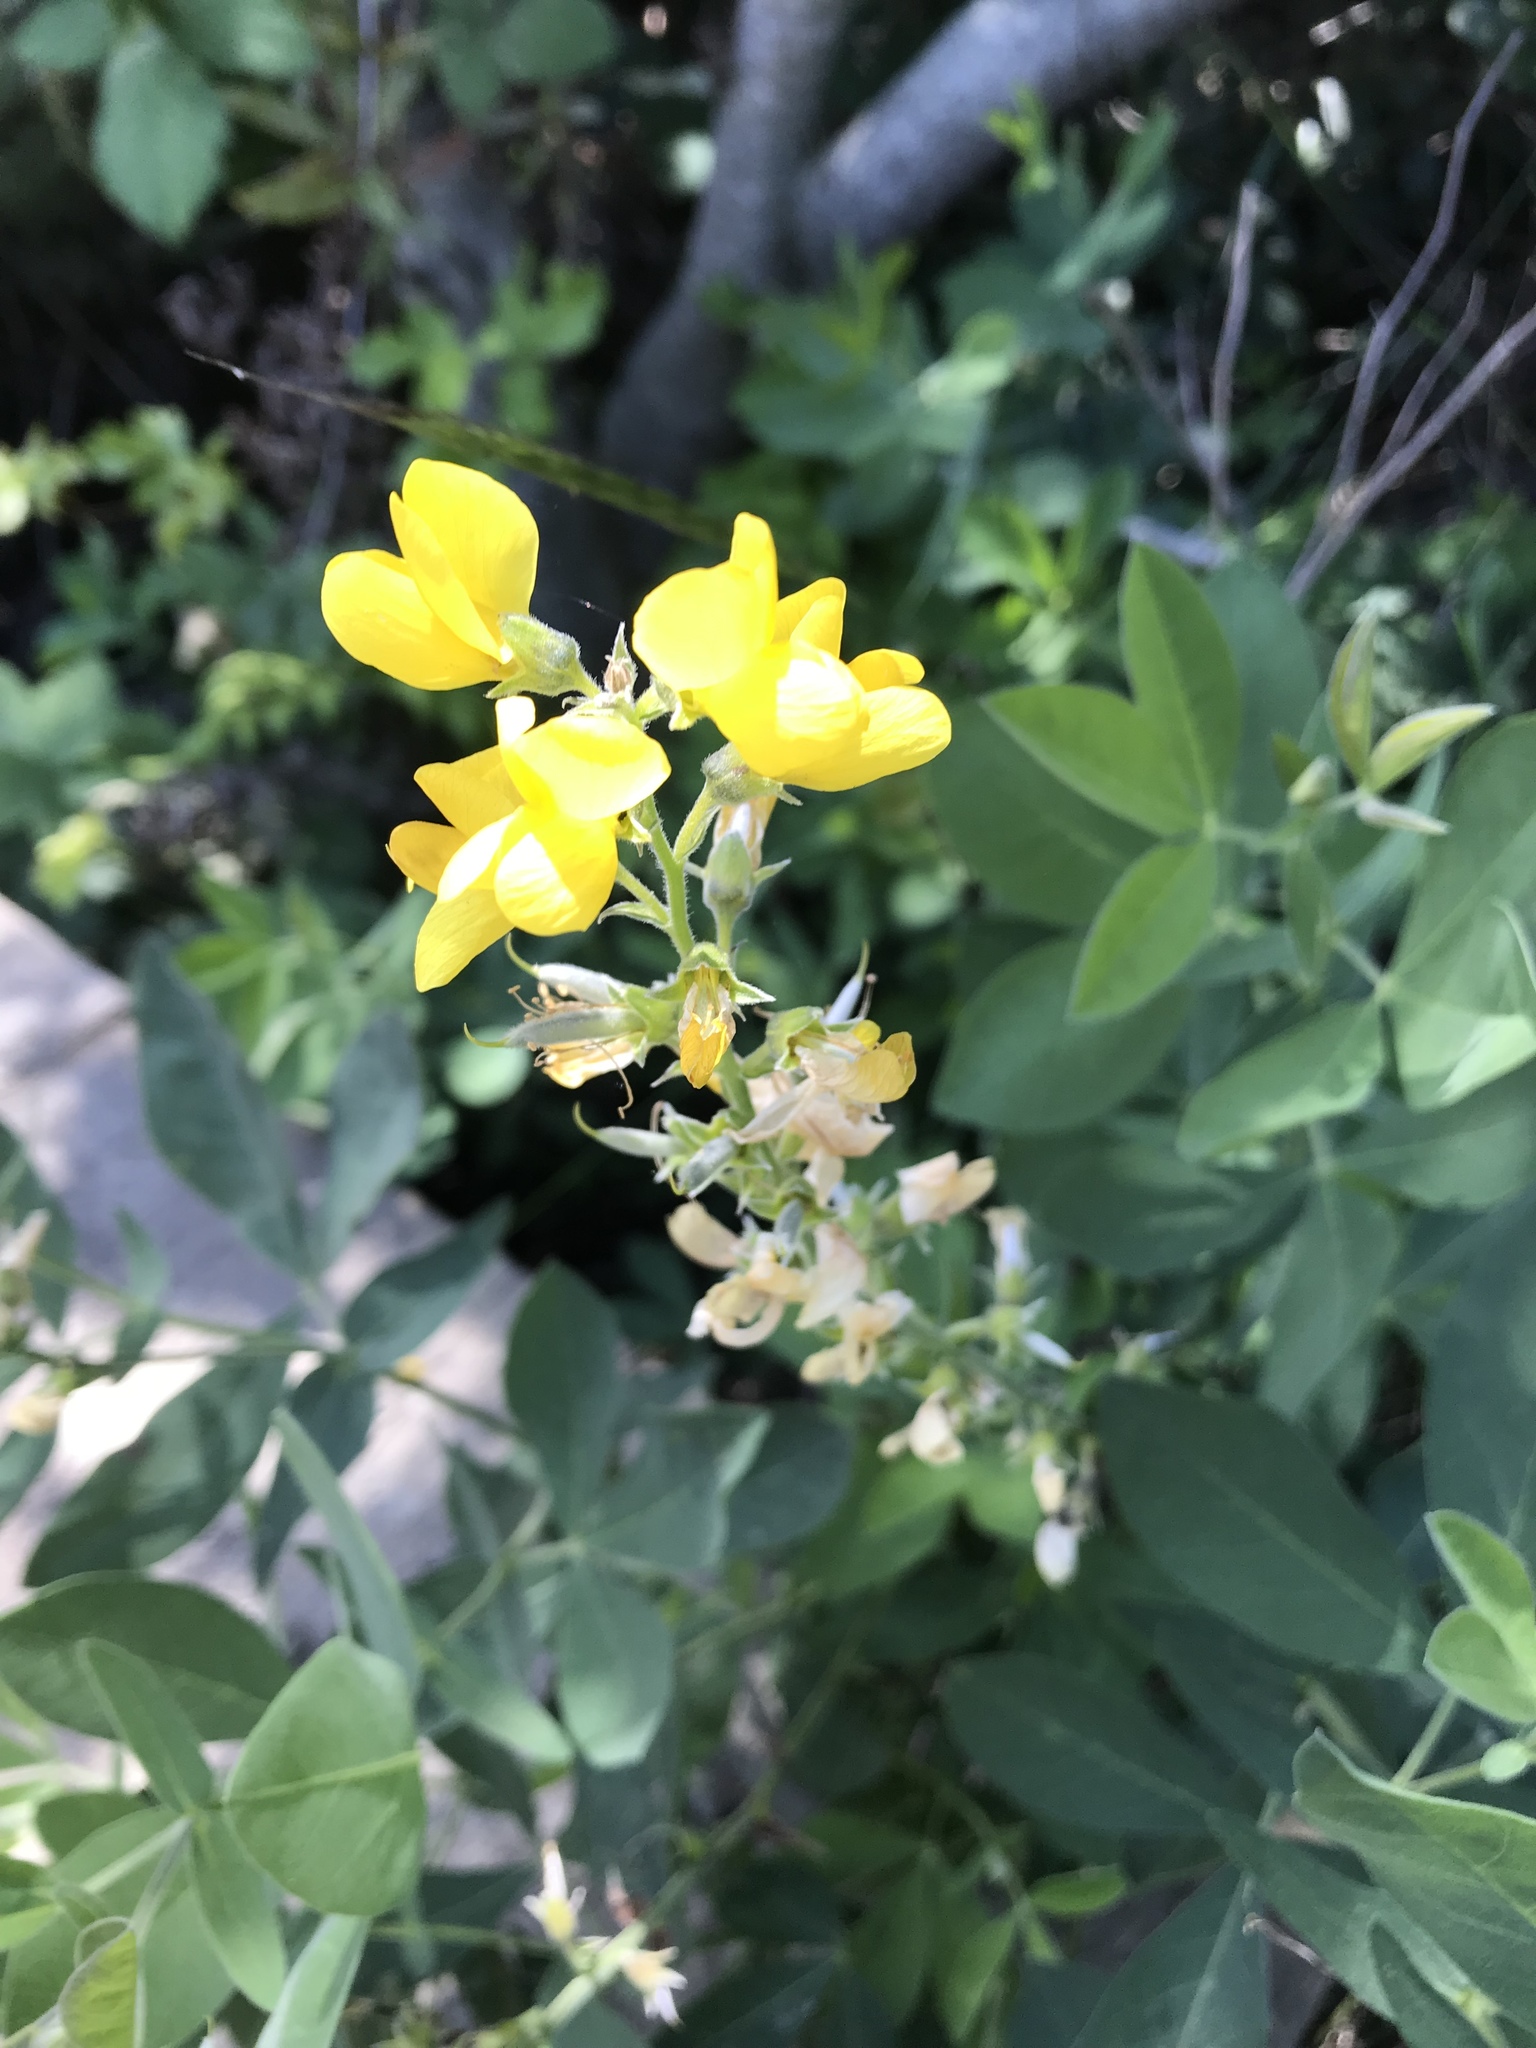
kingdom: Plantae
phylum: Tracheophyta
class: Magnoliopsida
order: Fabales
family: Fabaceae
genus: Thermopsis
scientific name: Thermopsis californica
